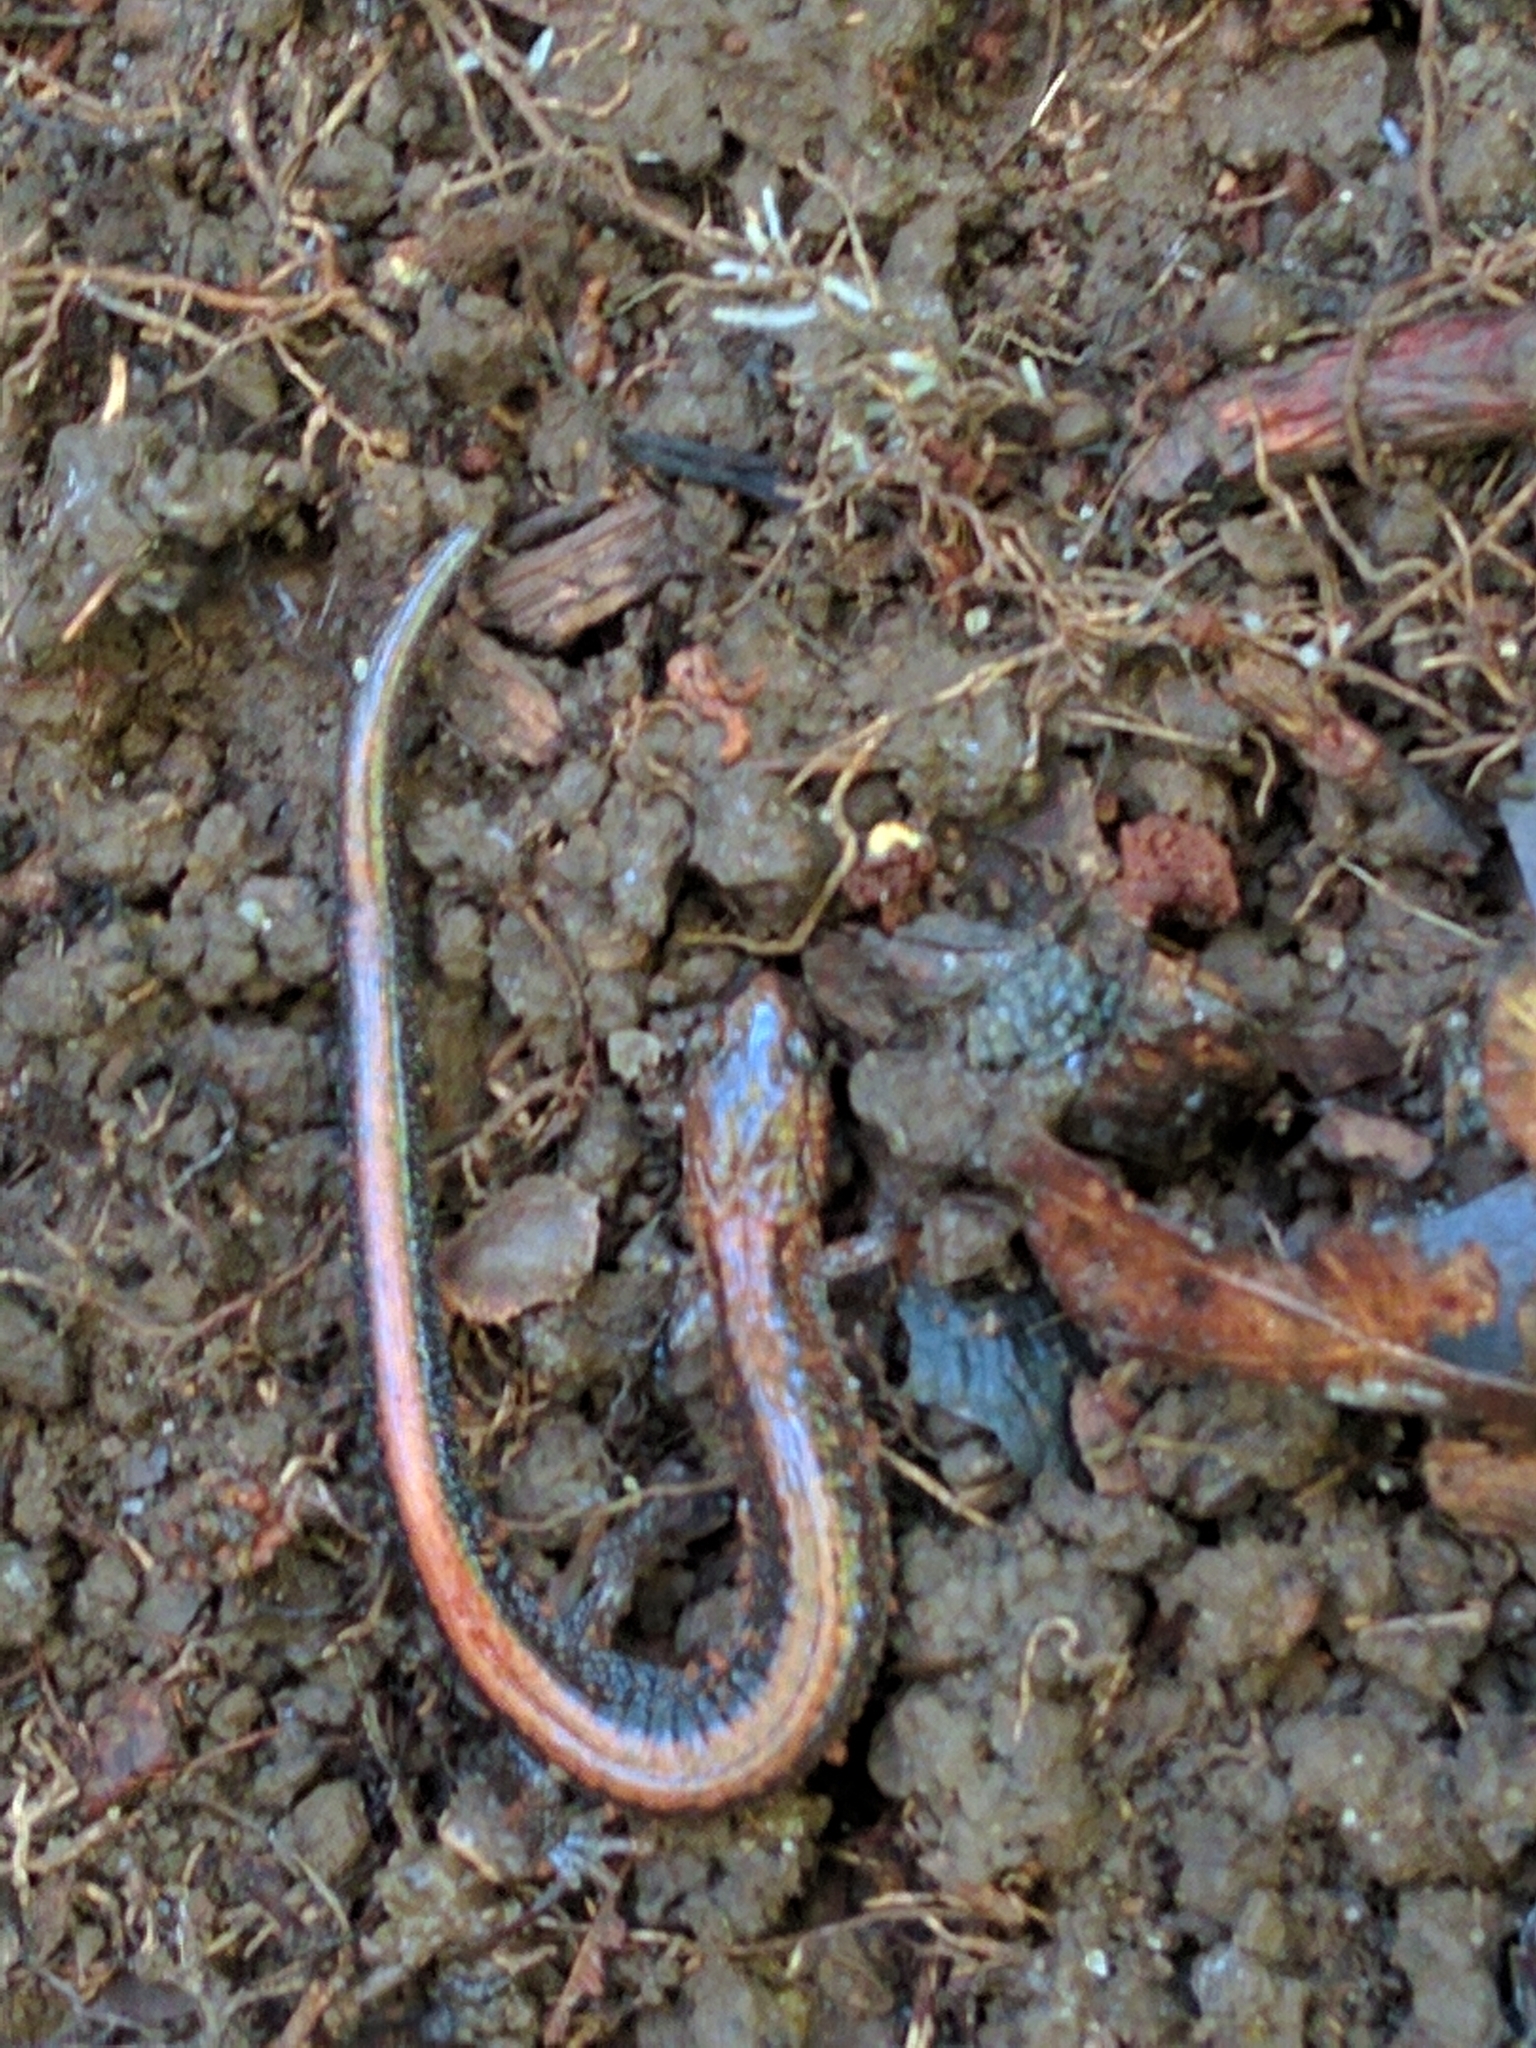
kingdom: Animalia
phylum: Chordata
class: Amphibia
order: Caudata
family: Plethodontidae
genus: Plethodon
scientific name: Plethodon cinereus
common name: Redback salamander
